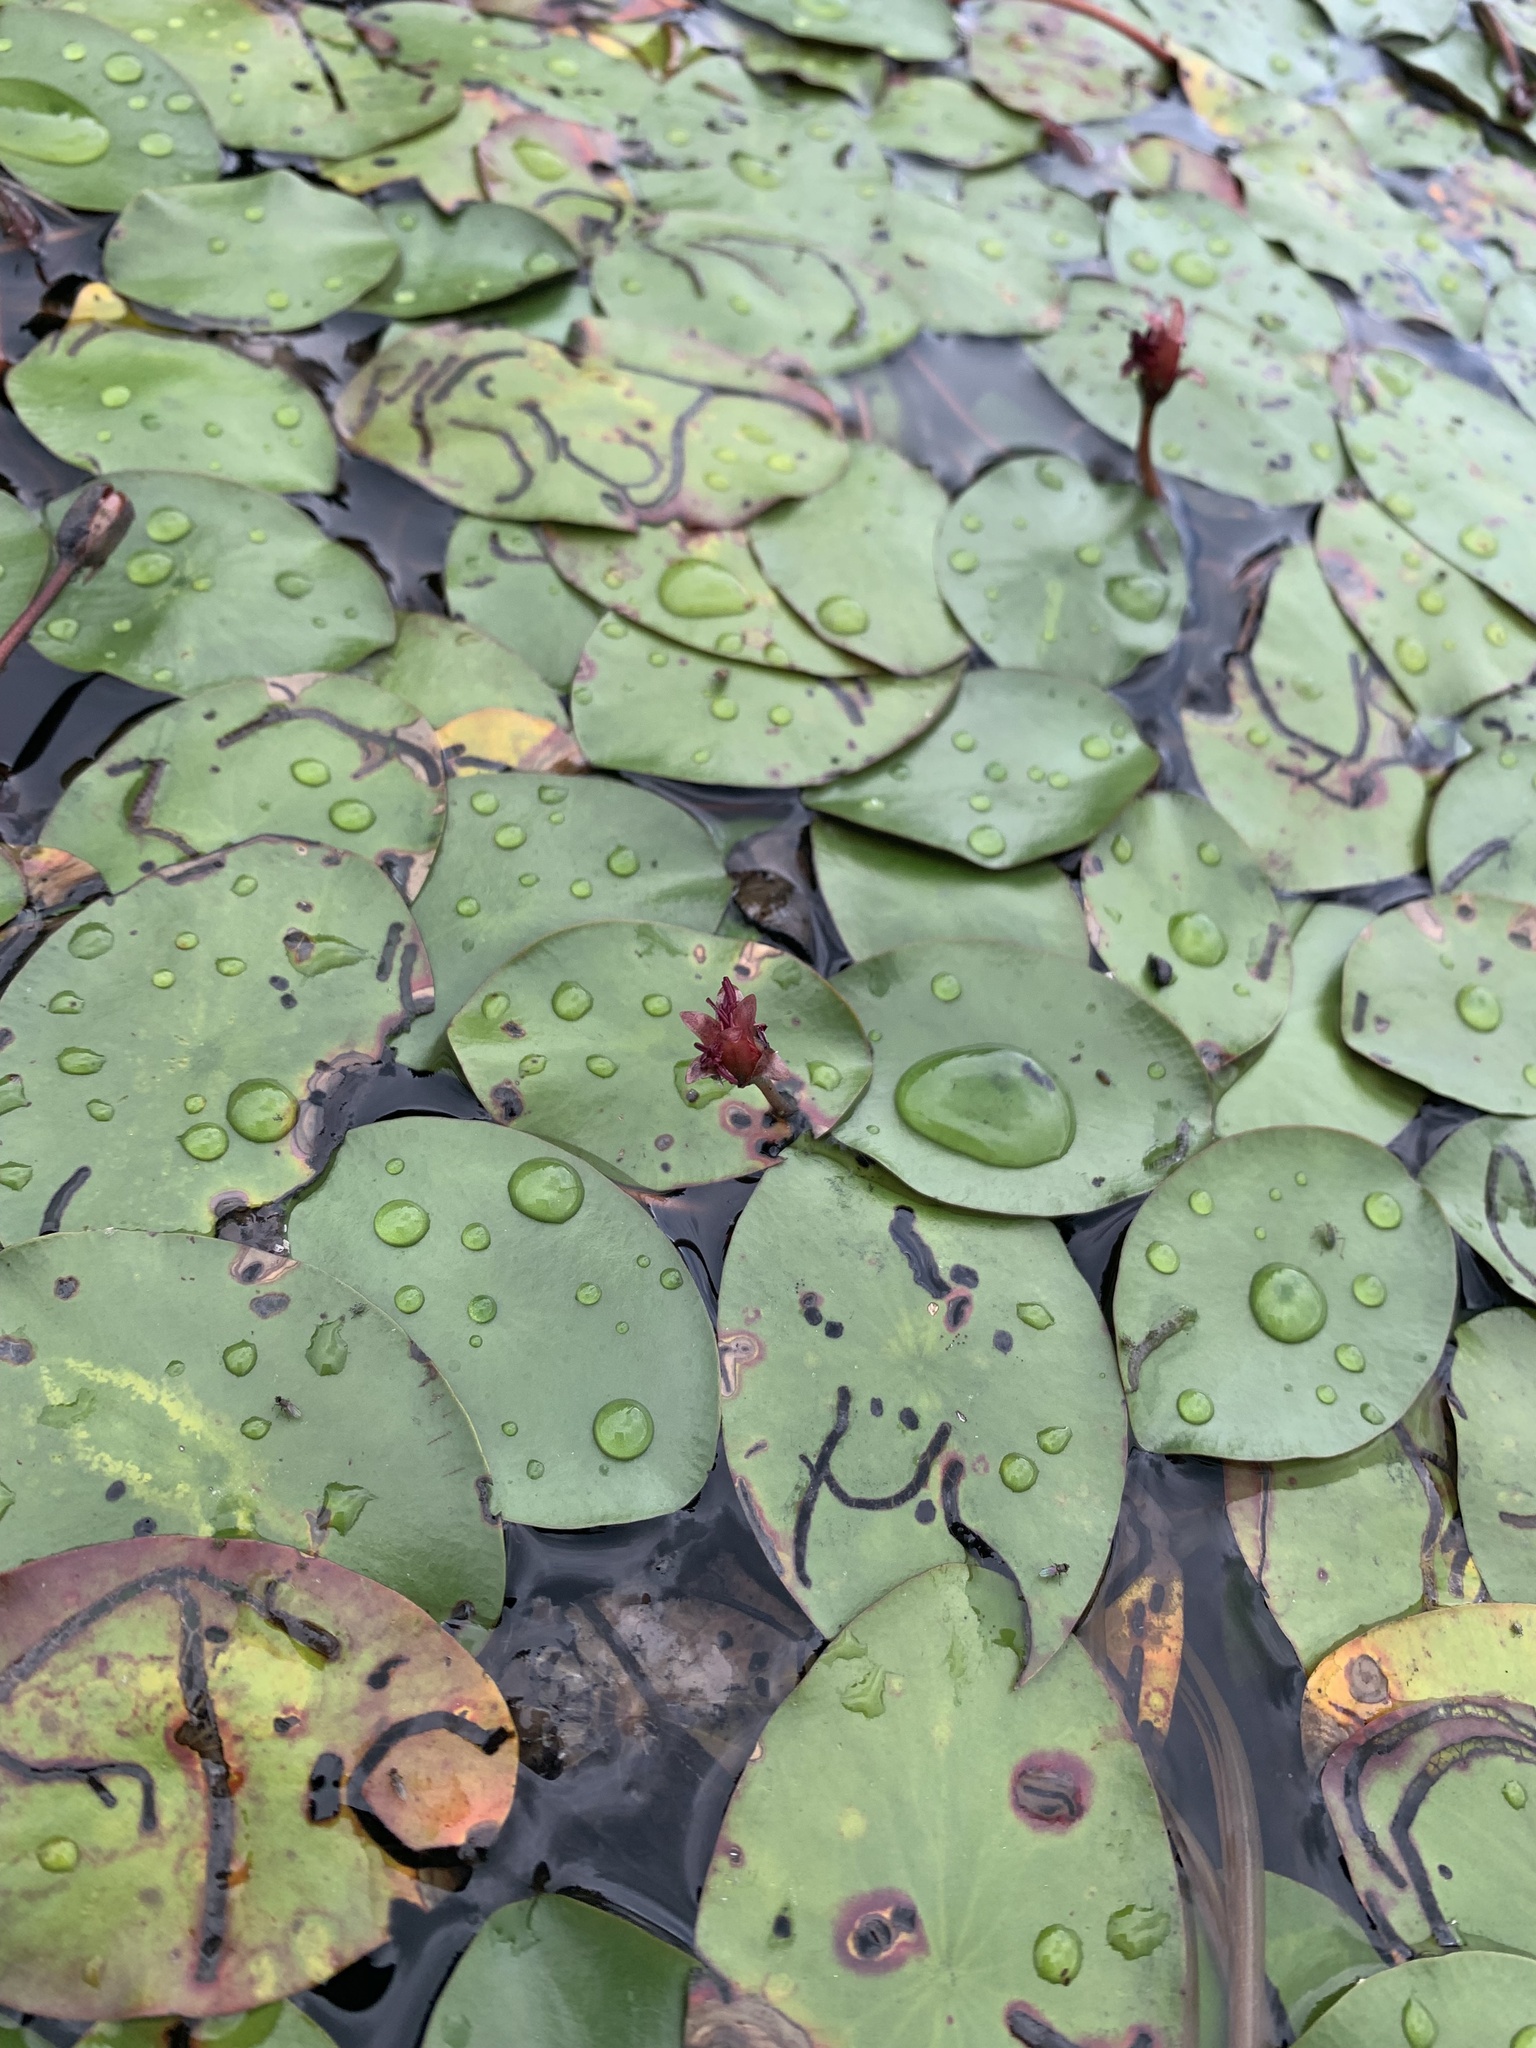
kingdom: Plantae
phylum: Tracheophyta
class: Magnoliopsida
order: Nymphaeales
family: Cabombaceae
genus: Brasenia
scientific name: Brasenia schreberi
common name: Water-shield
